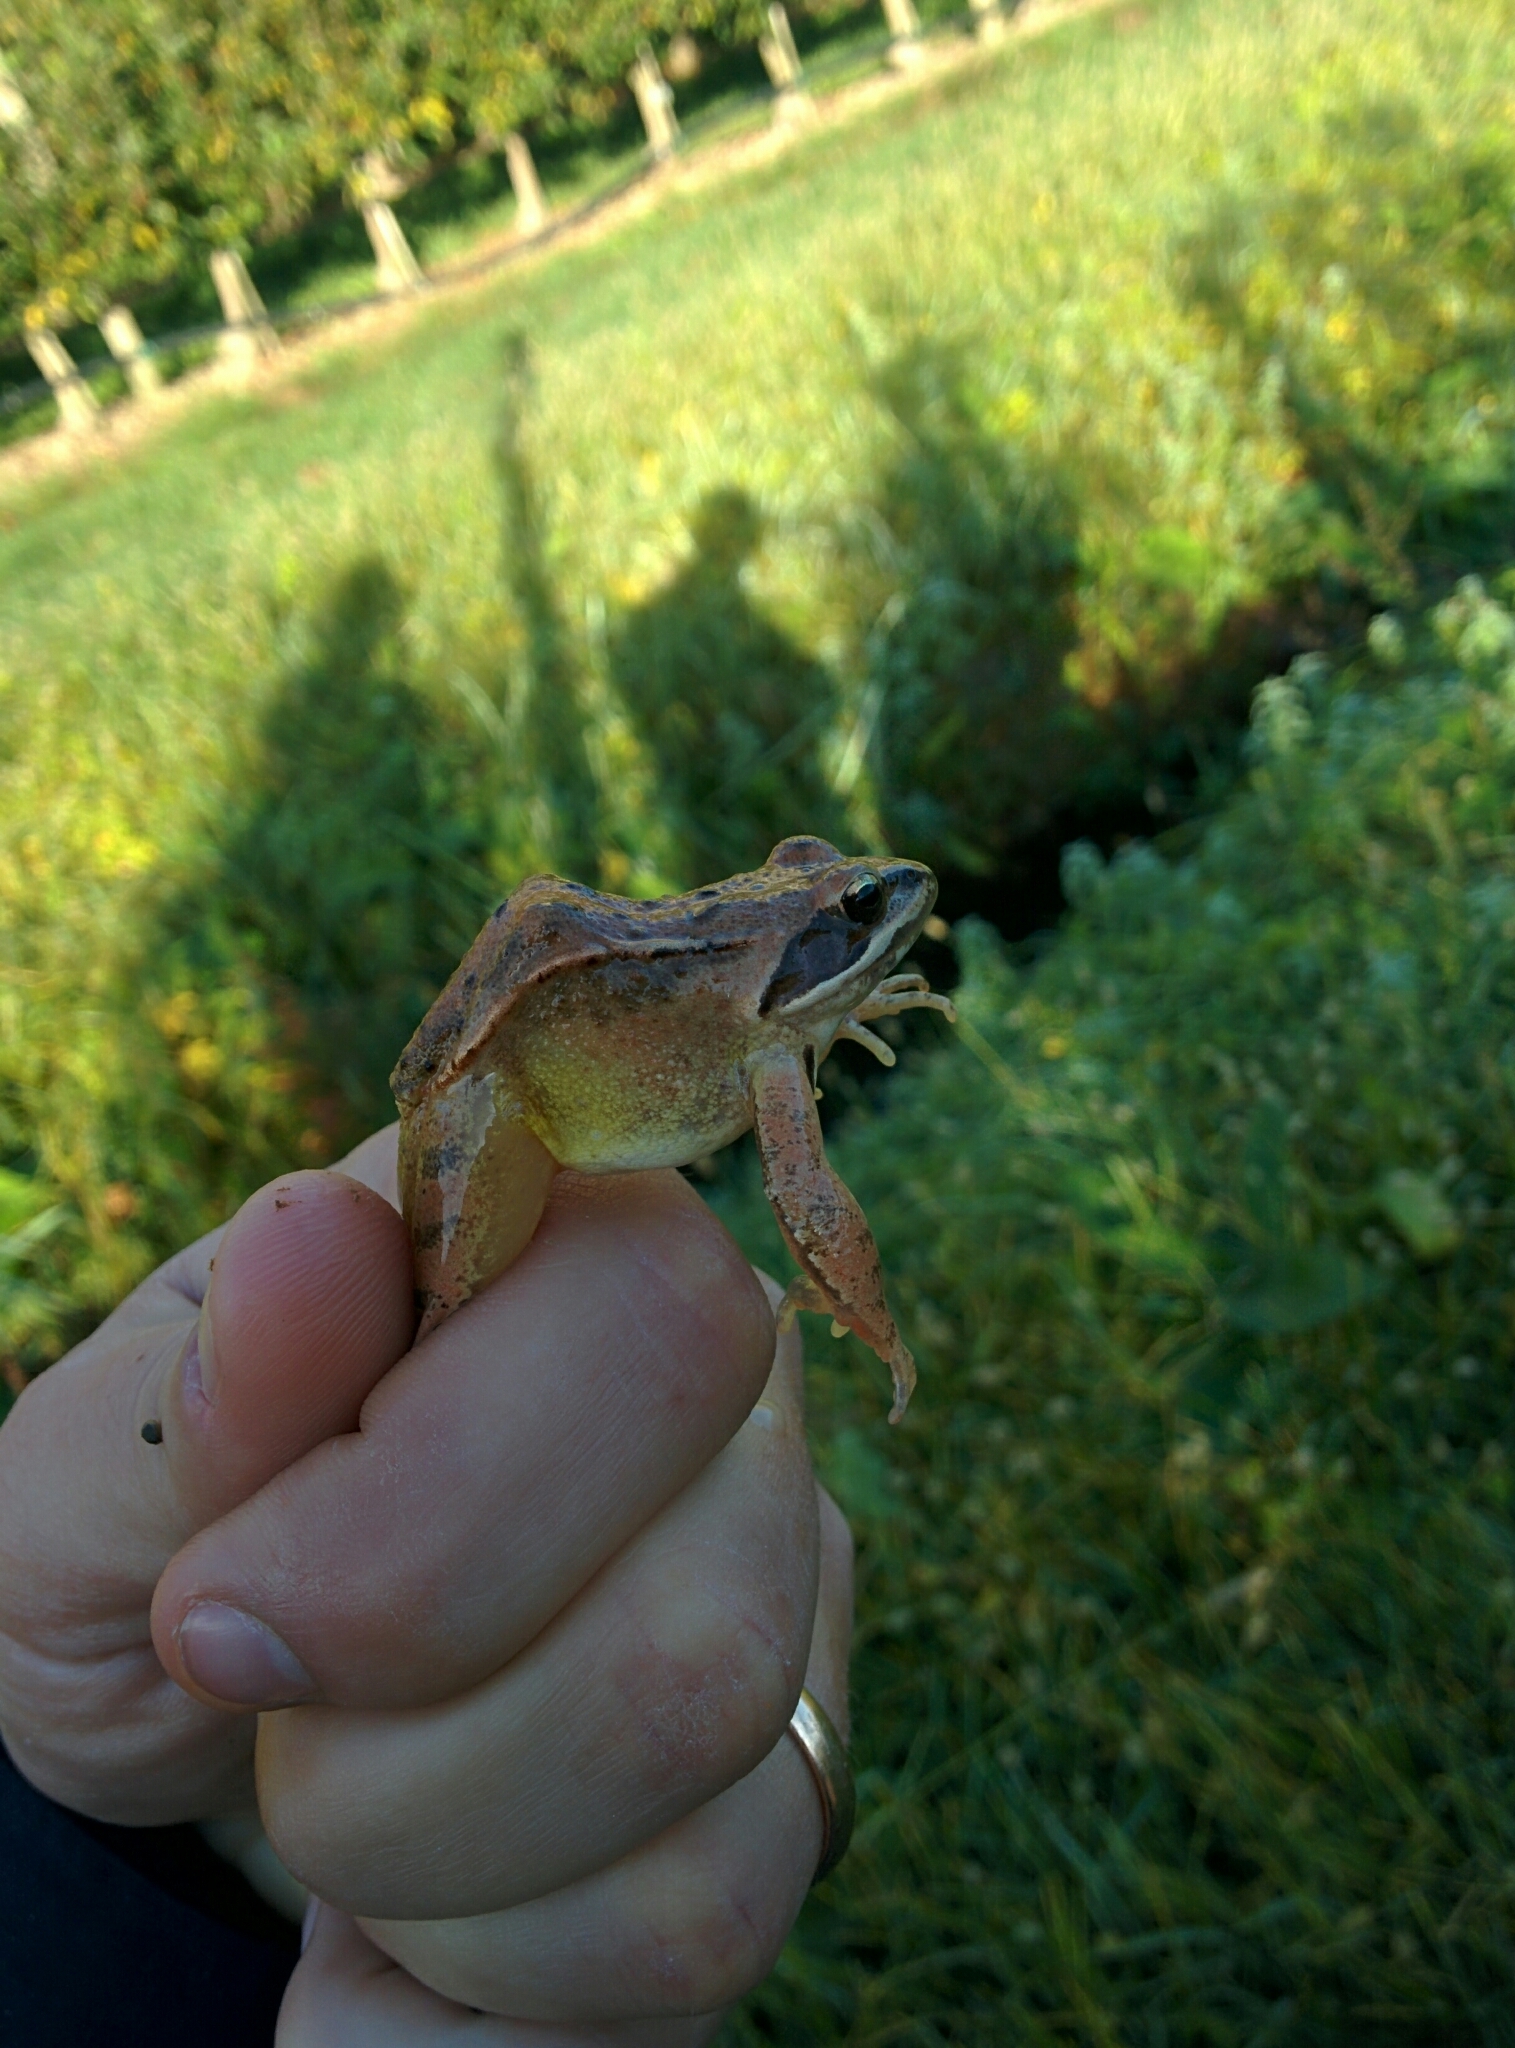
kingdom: Animalia
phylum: Chordata
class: Amphibia
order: Anura
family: Ranidae
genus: Rana
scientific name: Rana dalmatina
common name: Agile frog
